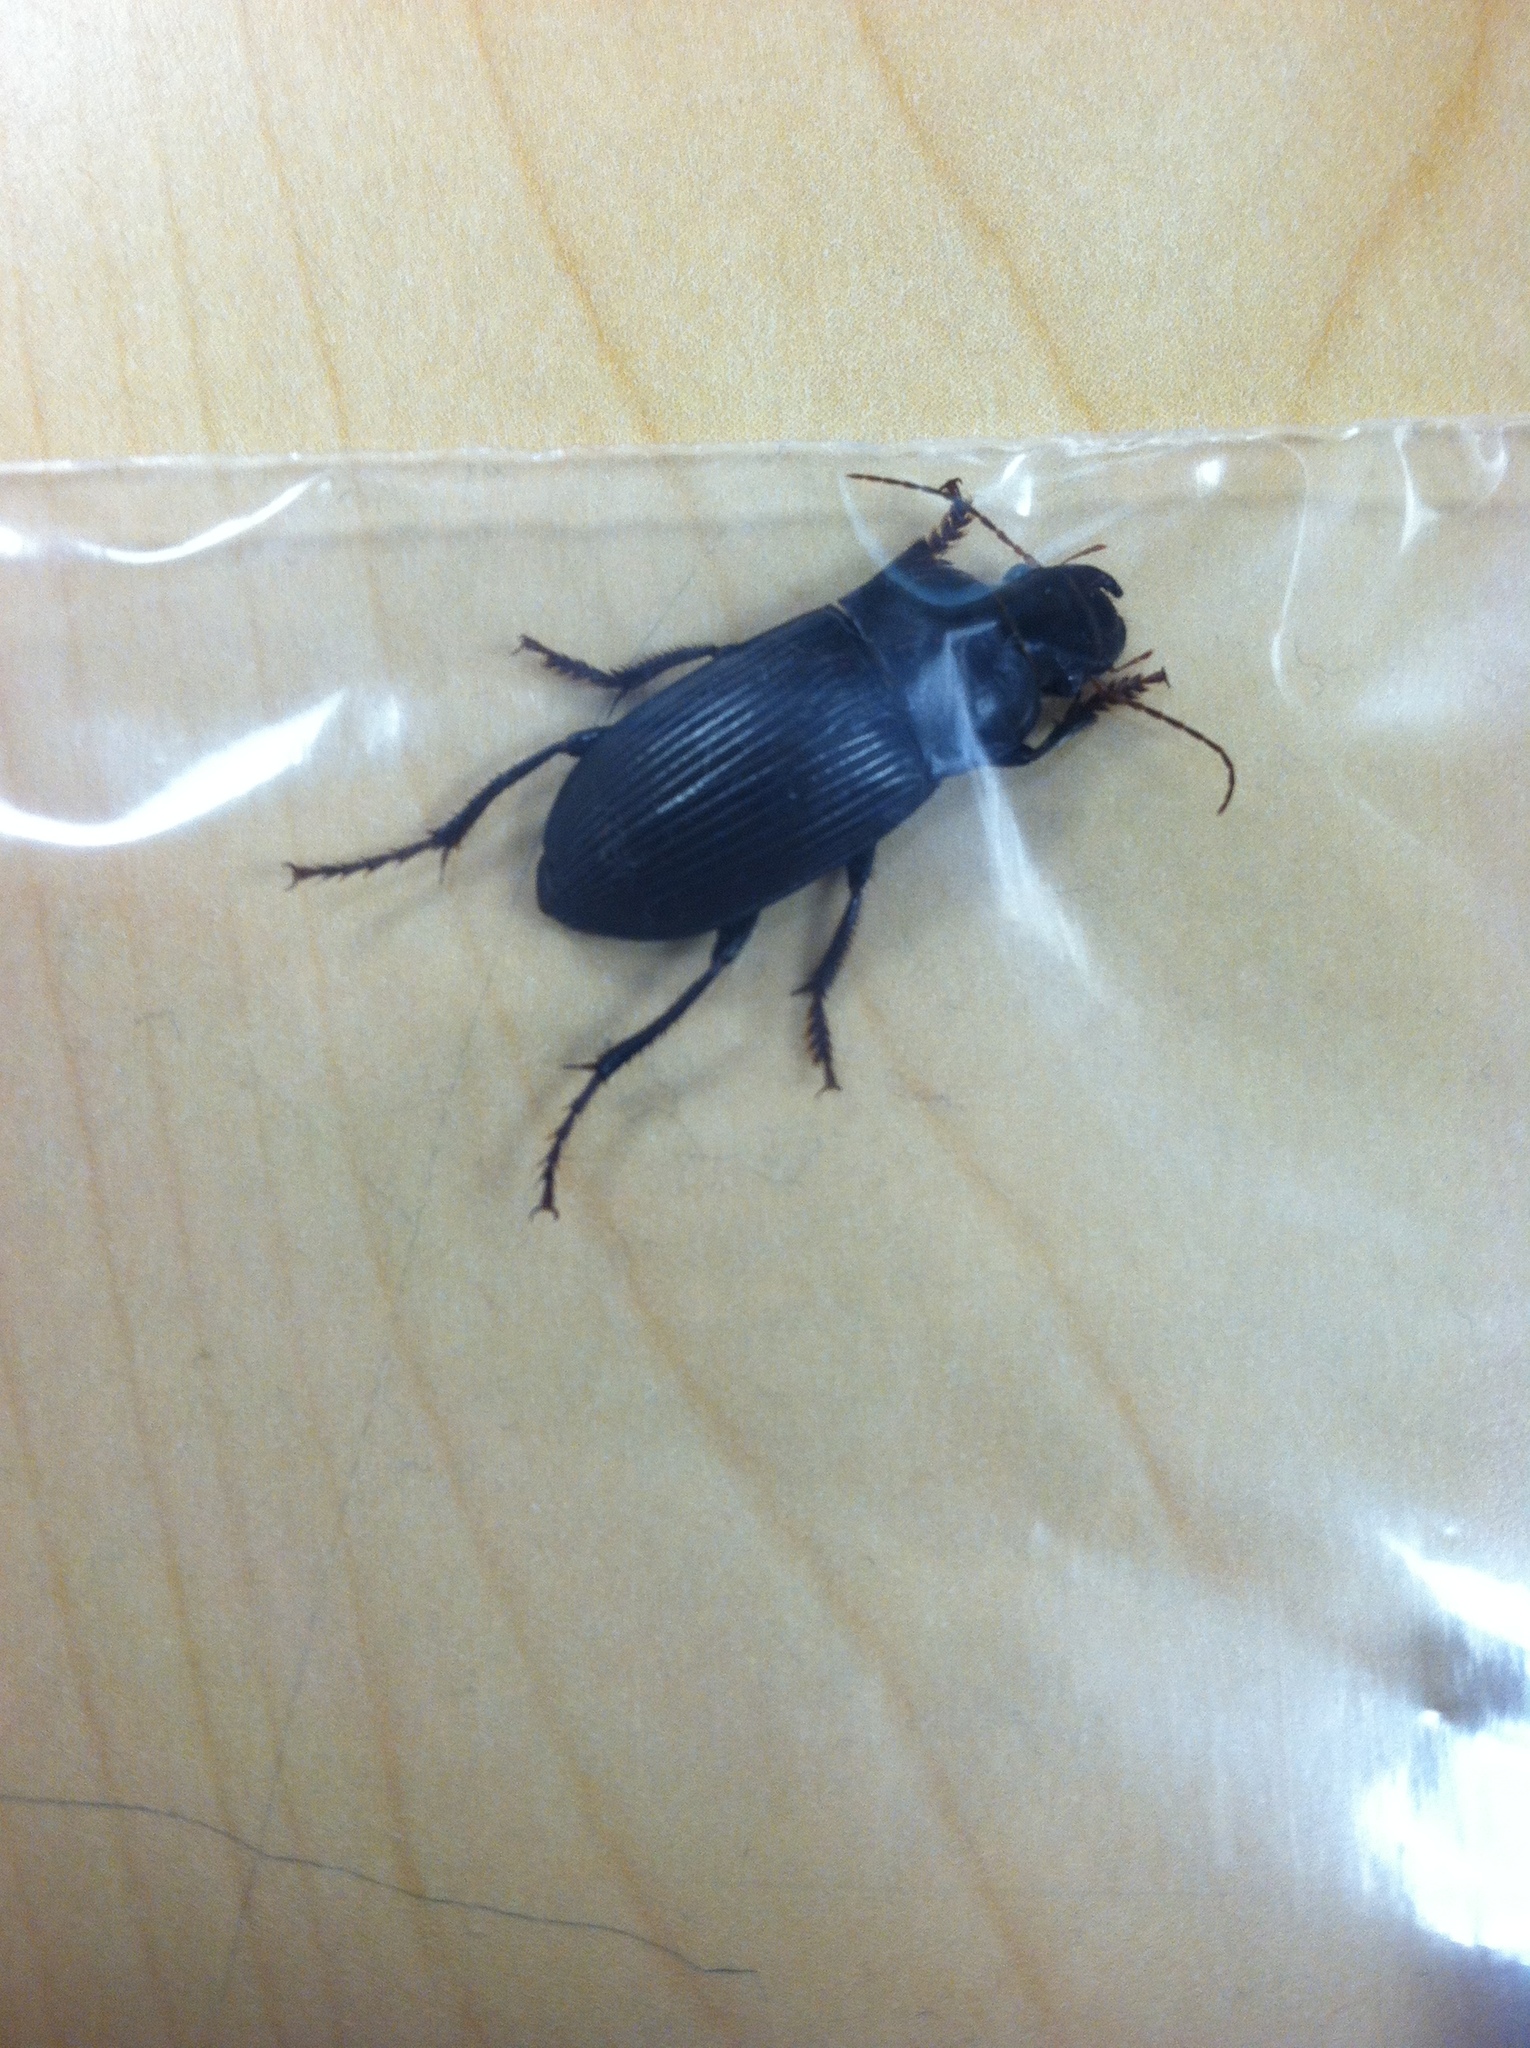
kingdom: Animalia
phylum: Arthropoda
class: Insecta
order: Coleoptera
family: Carabidae
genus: Harpalus
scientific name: Harpalus
